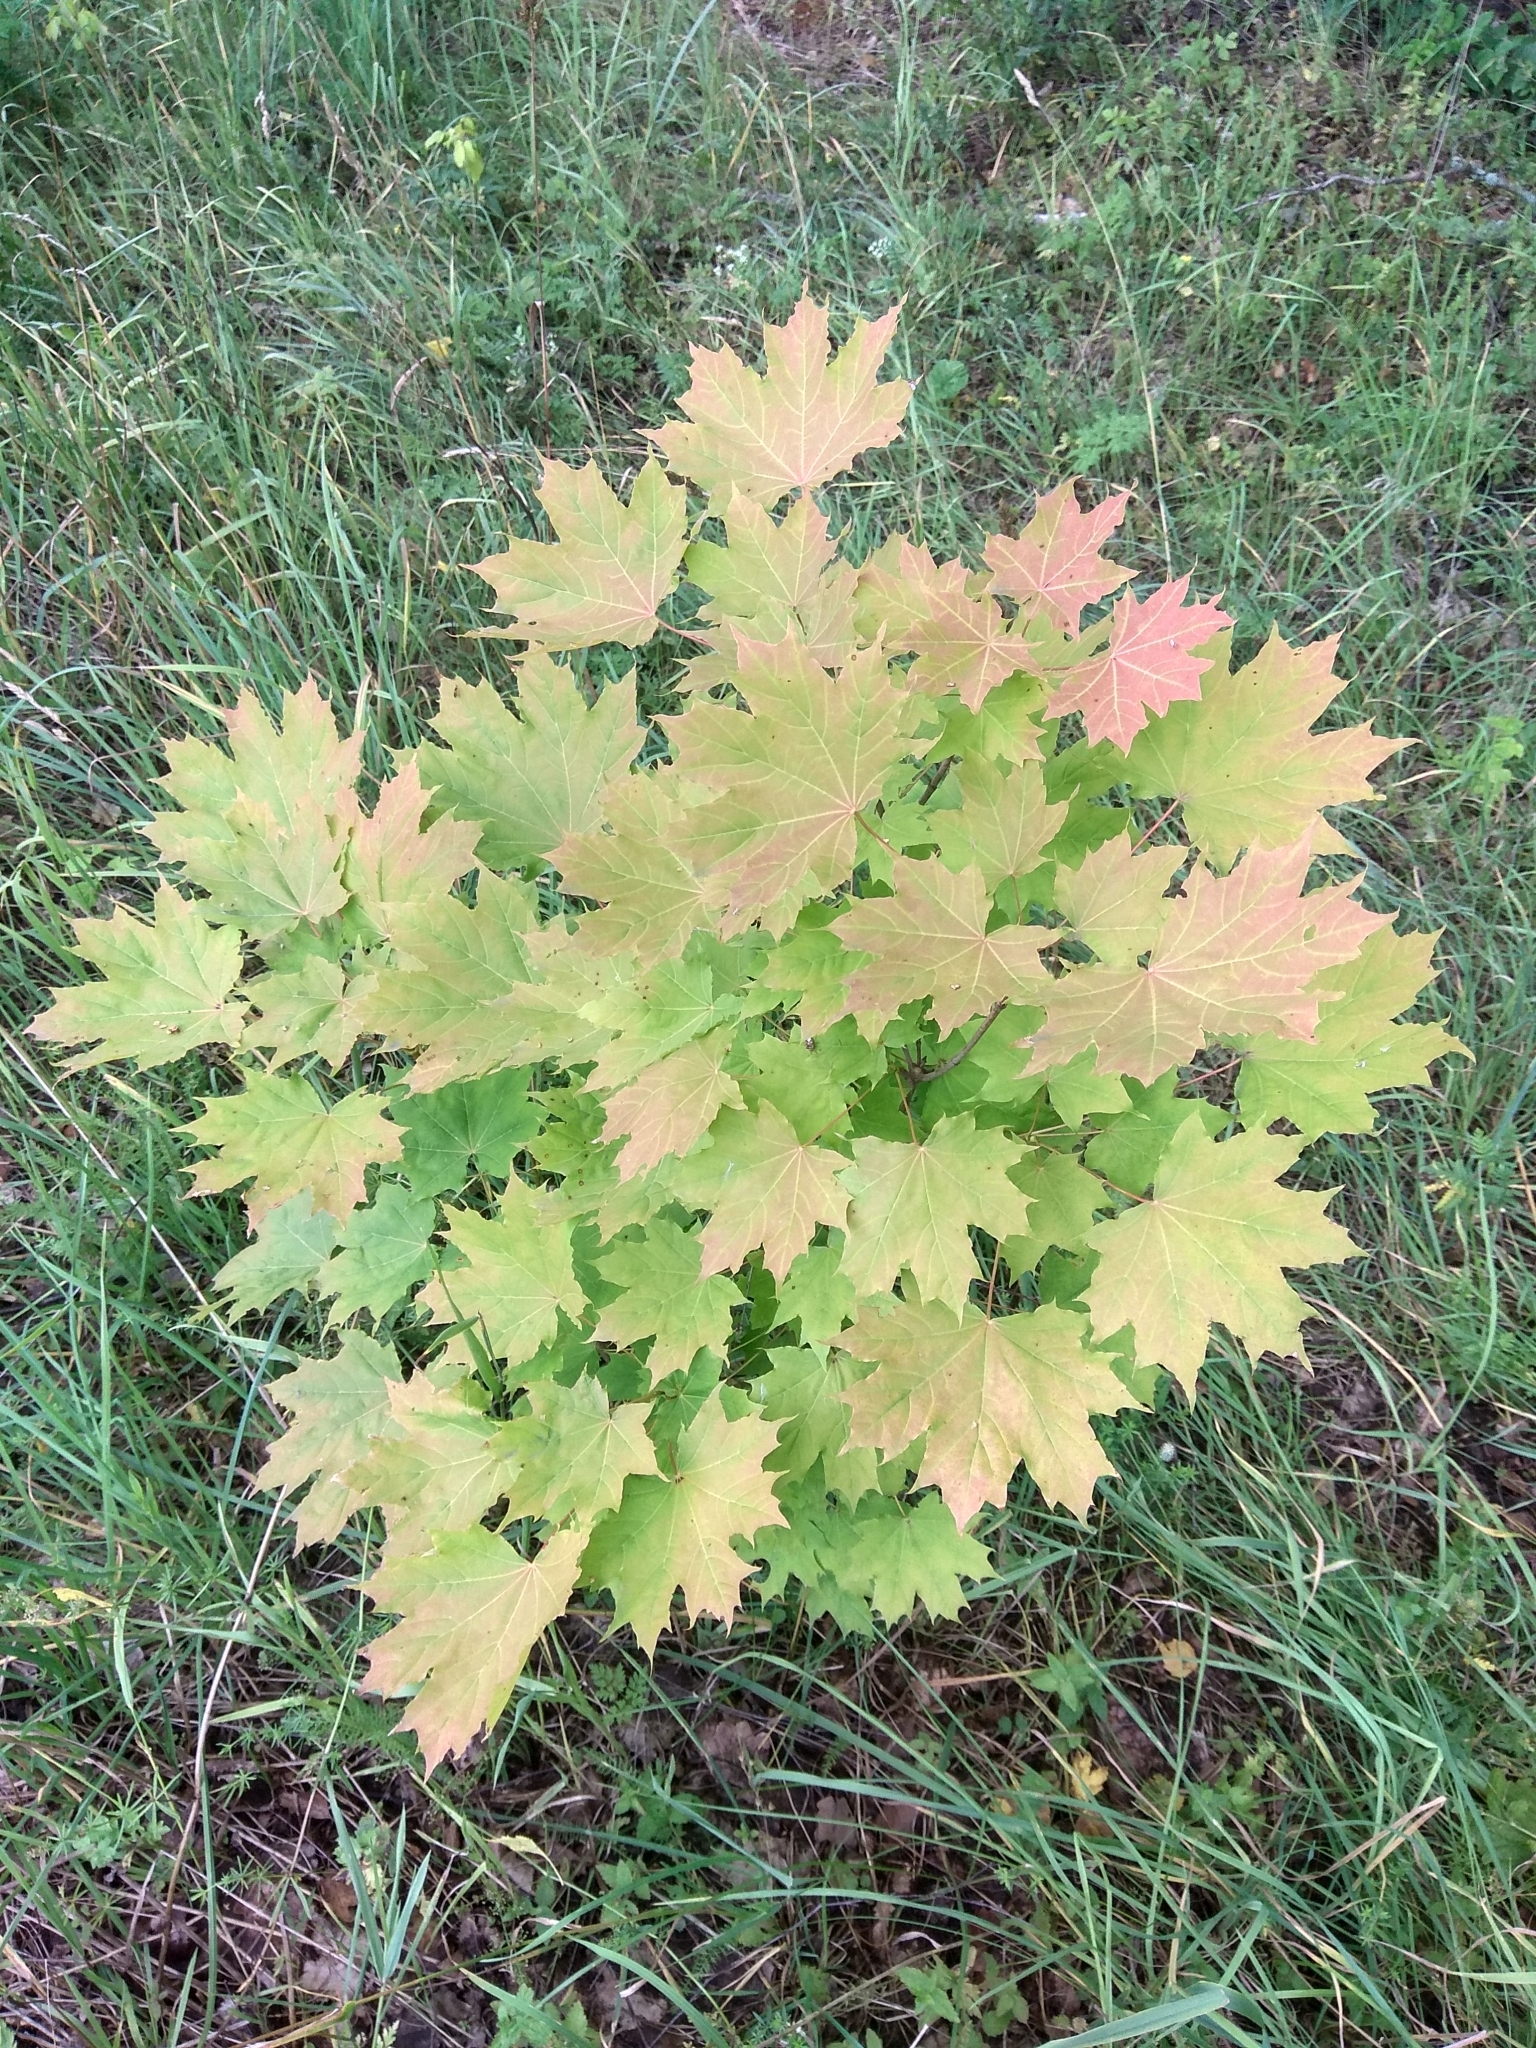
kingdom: Plantae
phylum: Tracheophyta
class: Magnoliopsida
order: Sapindales
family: Sapindaceae
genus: Acer
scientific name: Acer platanoides
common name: Norway maple
